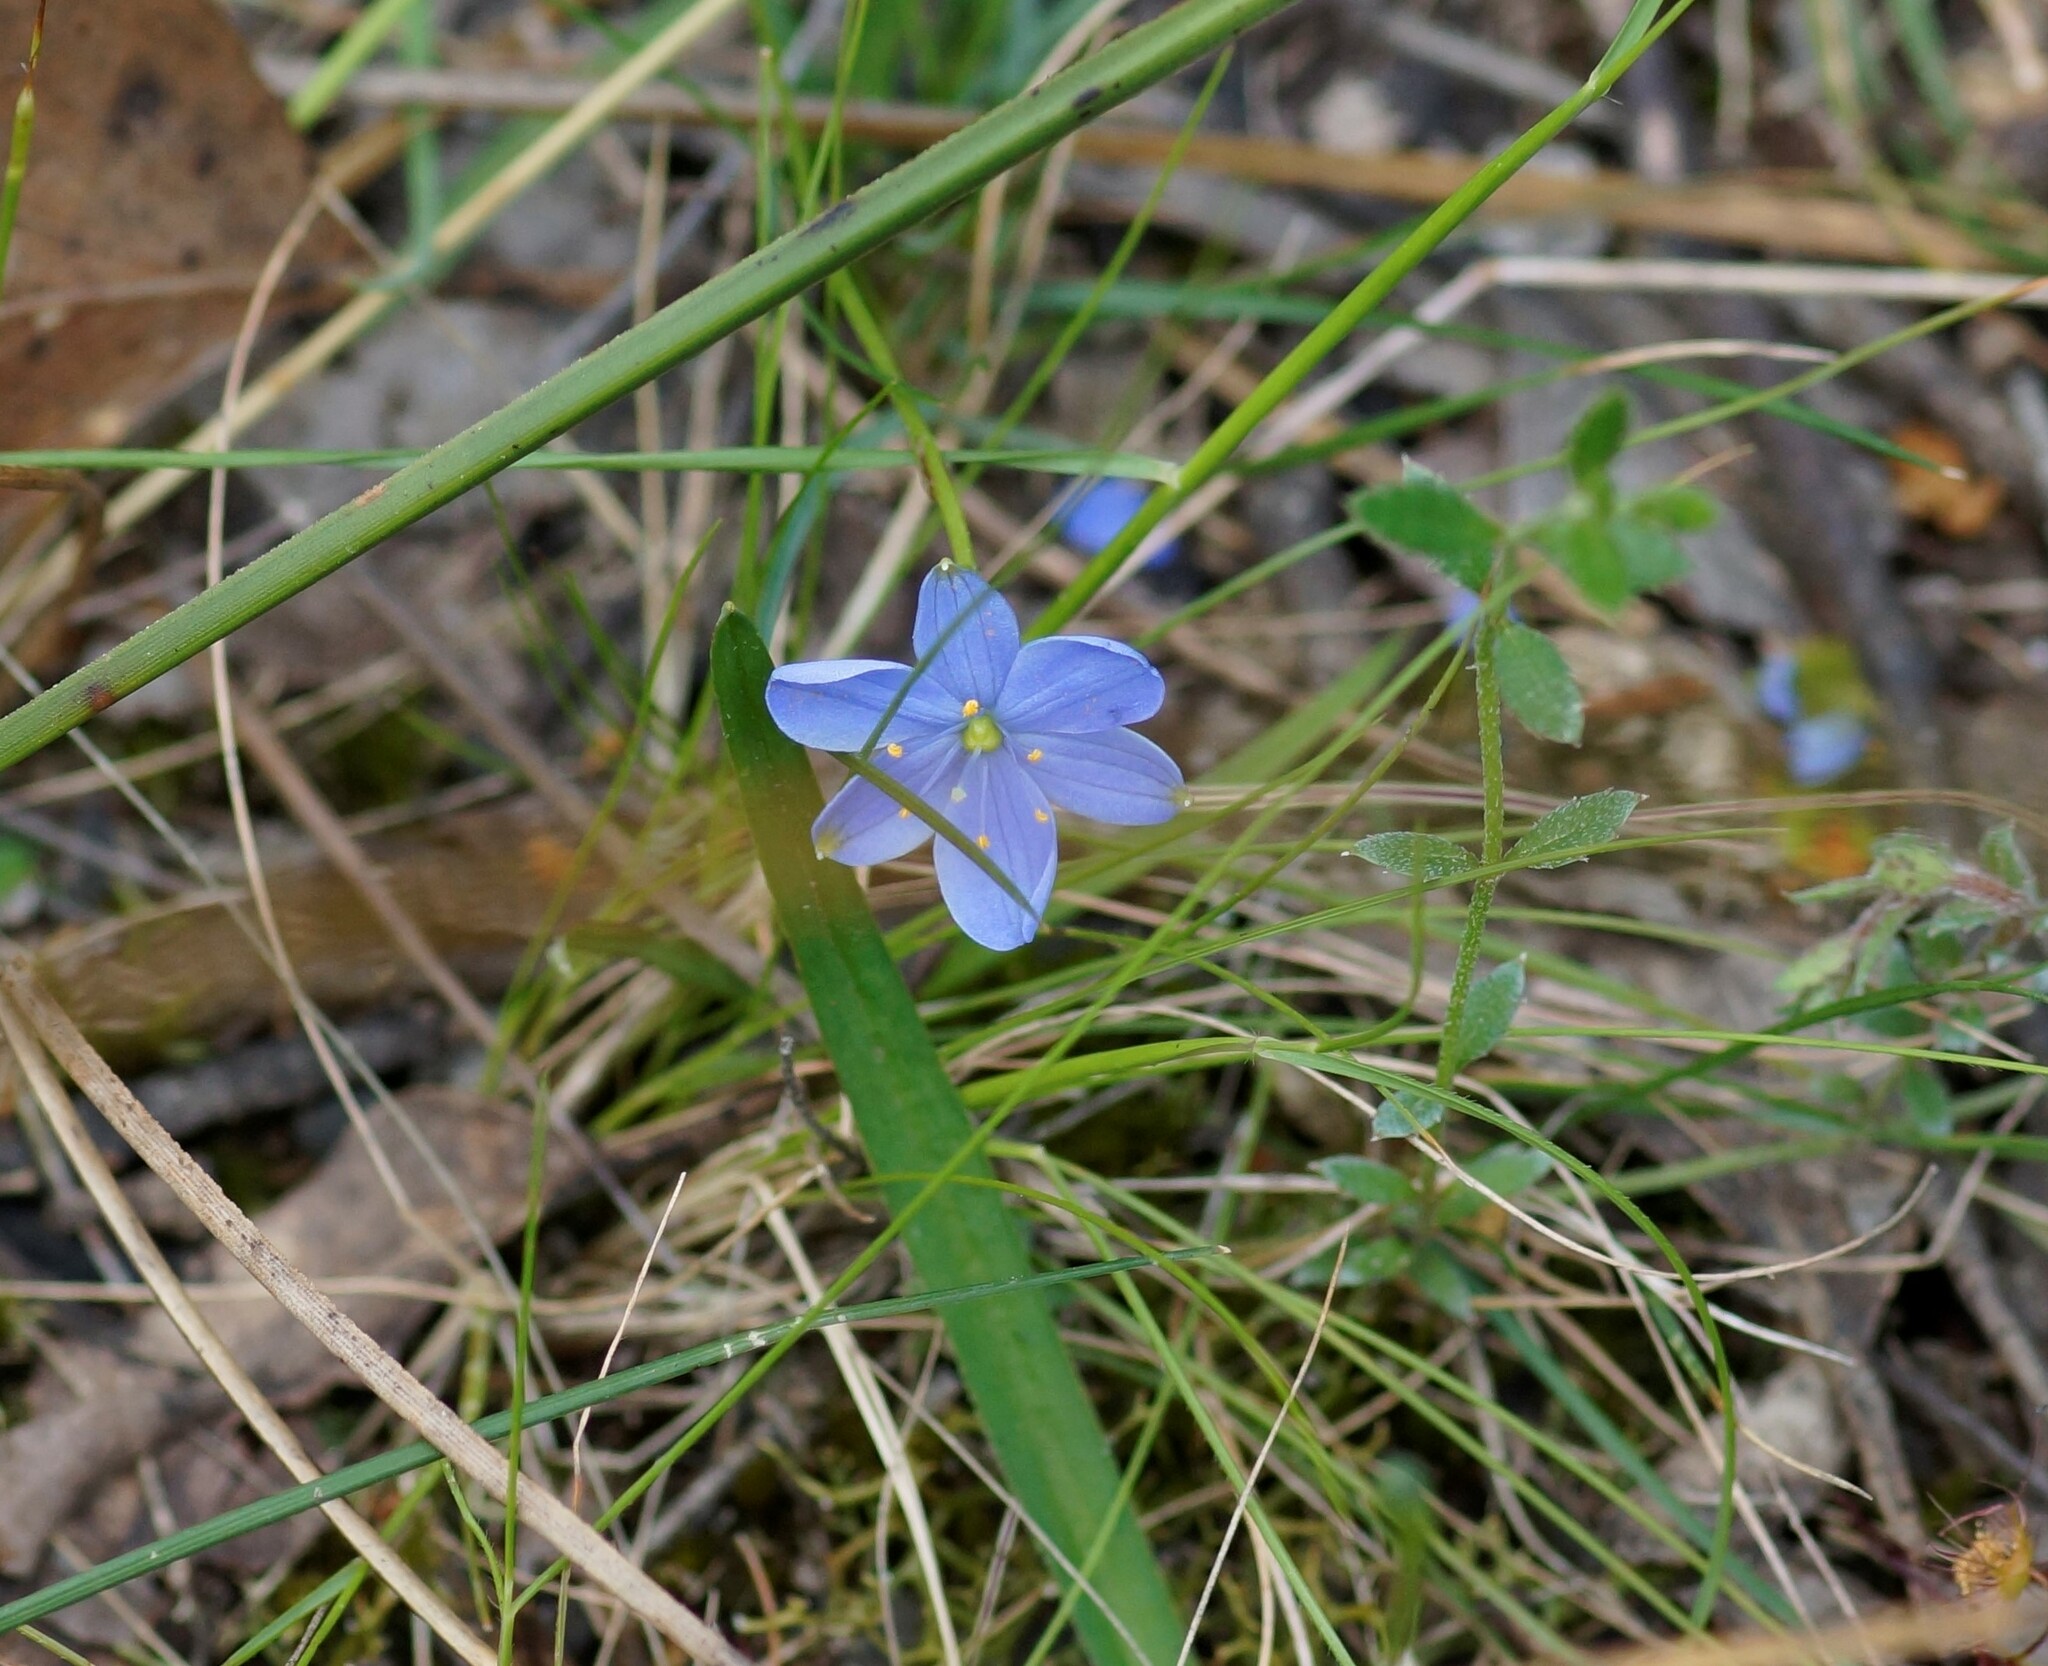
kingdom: Plantae
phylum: Tracheophyta
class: Liliopsida
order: Asparagales
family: Asphodelaceae
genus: Chamaescilla
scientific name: Chamaescilla corymbosa
